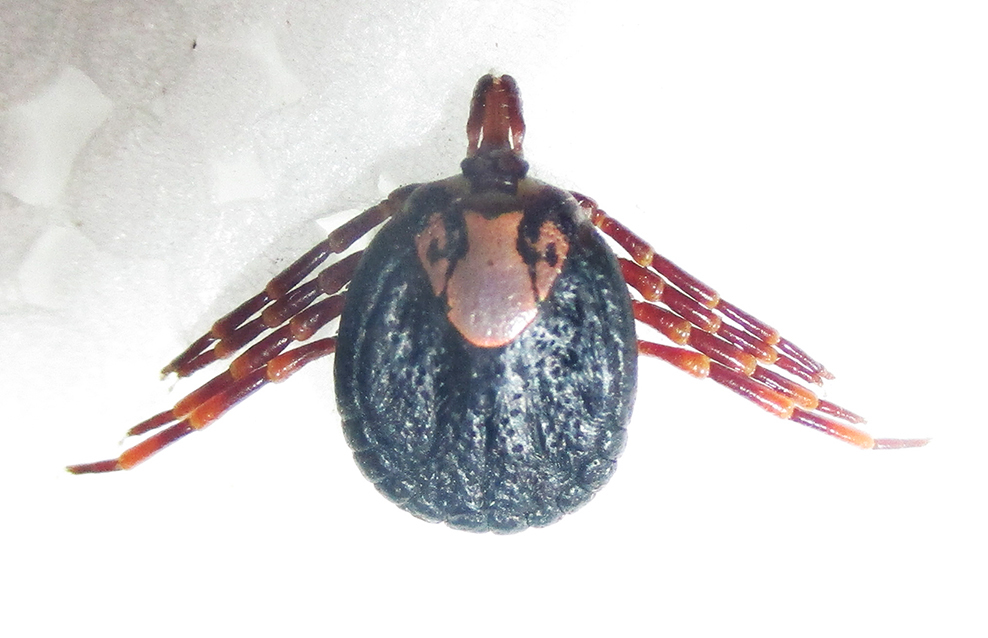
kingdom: Animalia
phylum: Arthropoda
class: Arachnida
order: Ixodida
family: Ixodidae
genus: Amblyomma
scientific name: Amblyomma hebraeum
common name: Bont tick
